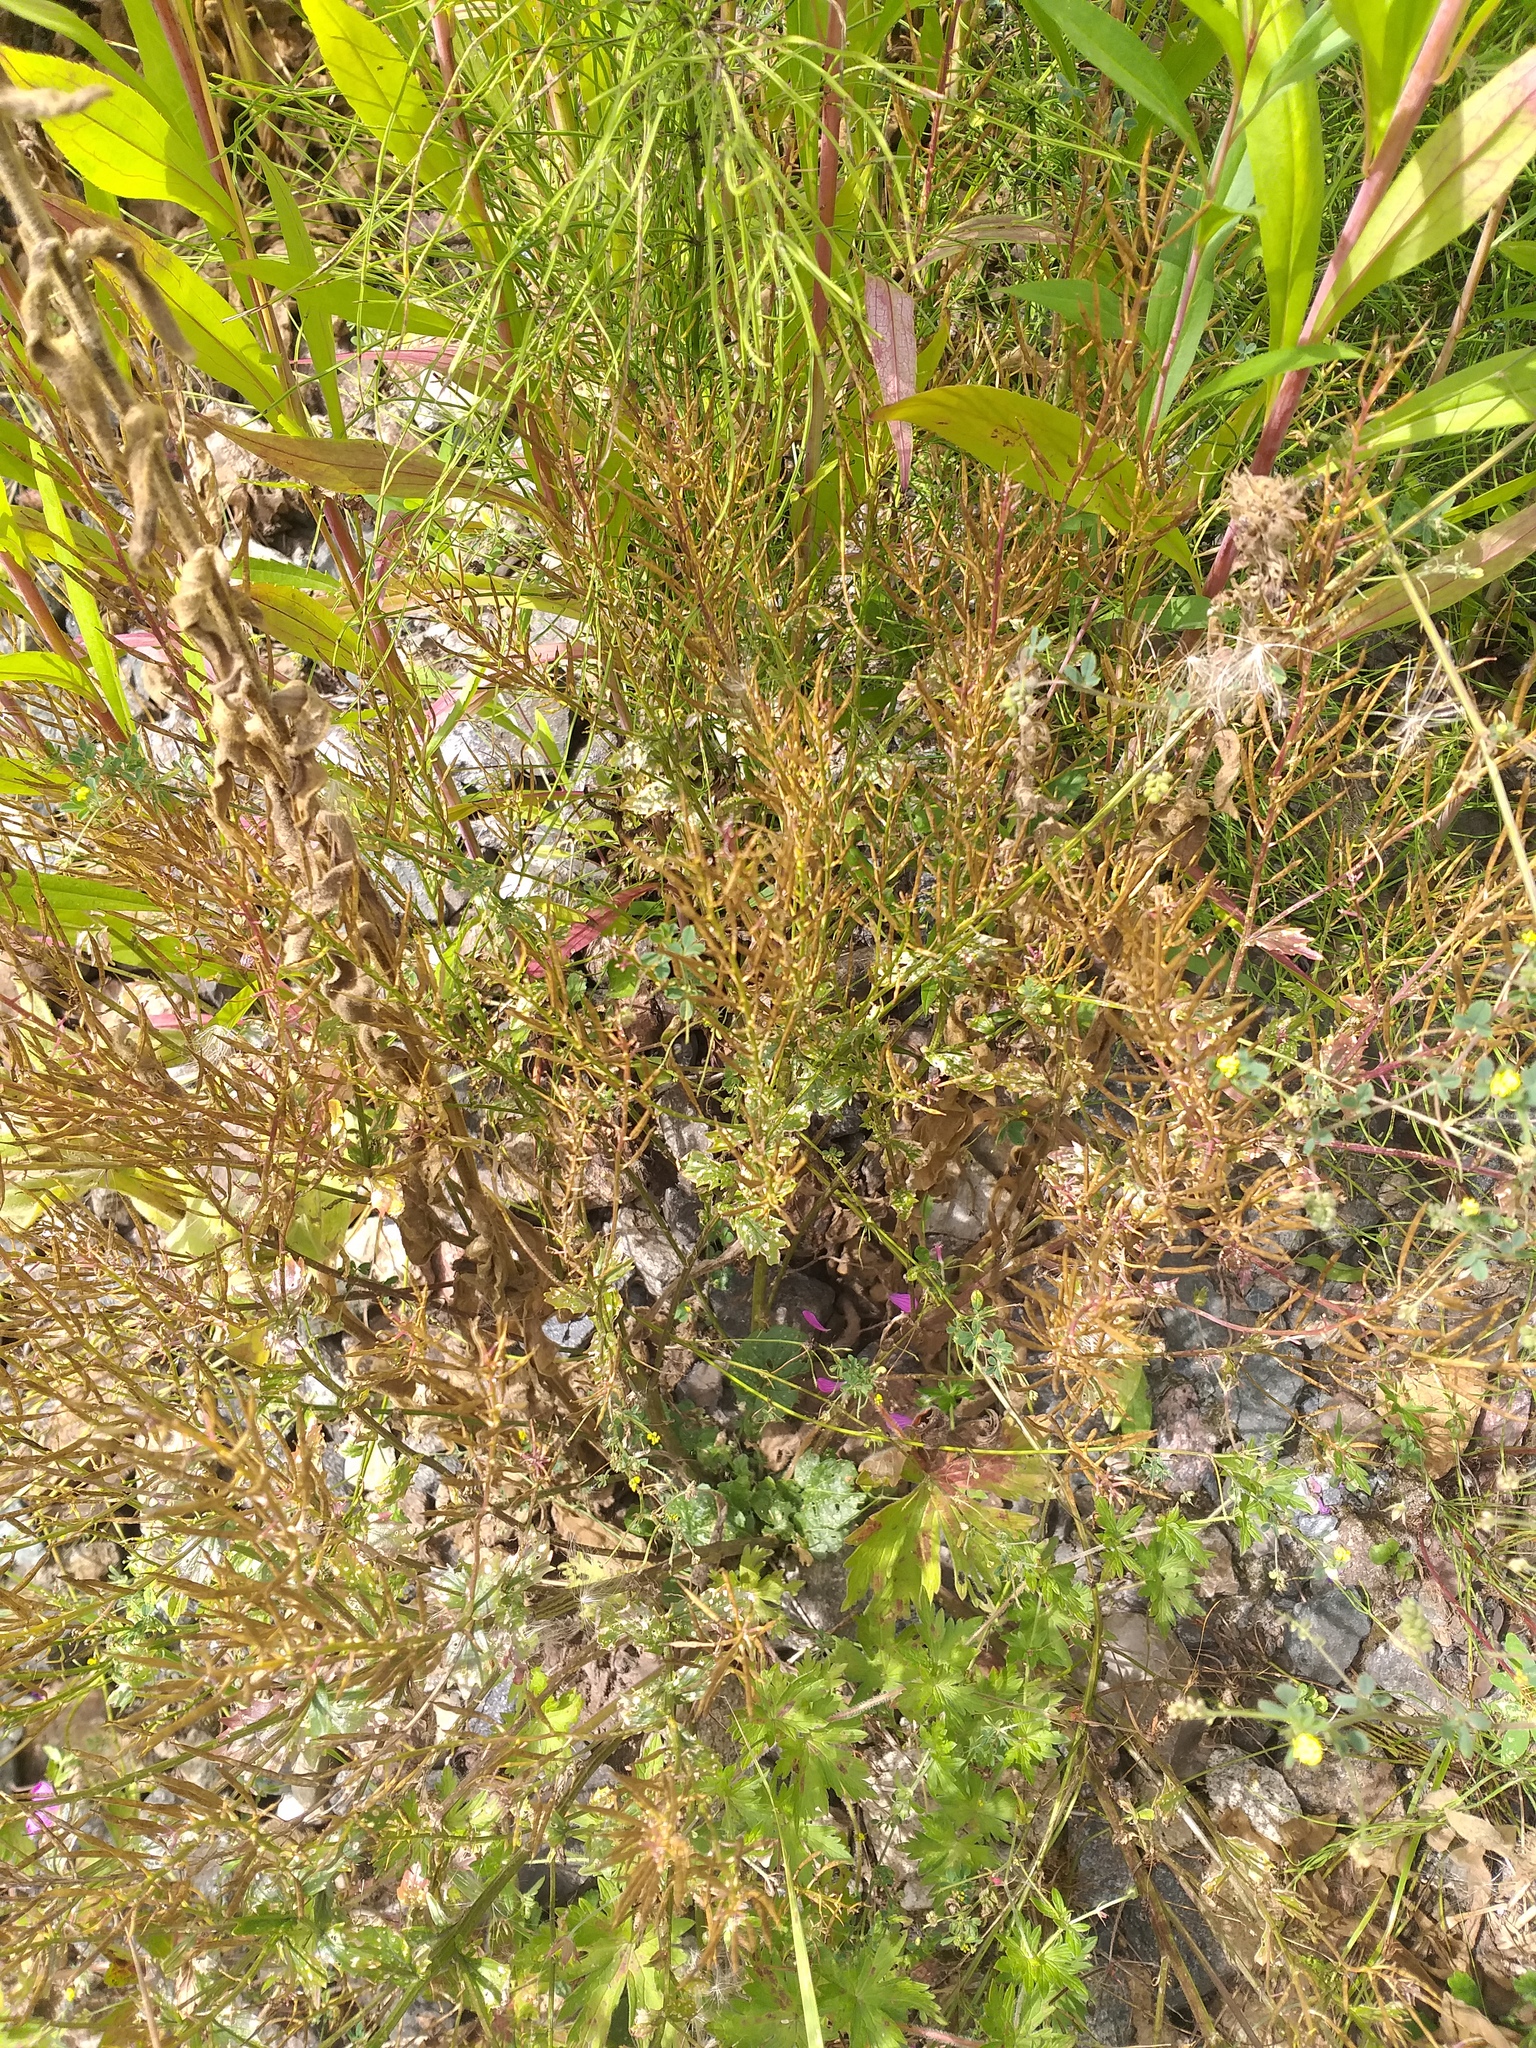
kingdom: Plantae
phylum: Tracheophyta
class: Magnoliopsida
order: Brassicales
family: Brassicaceae
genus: Barbarea
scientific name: Barbarea vulgaris
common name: Cressy-greens
